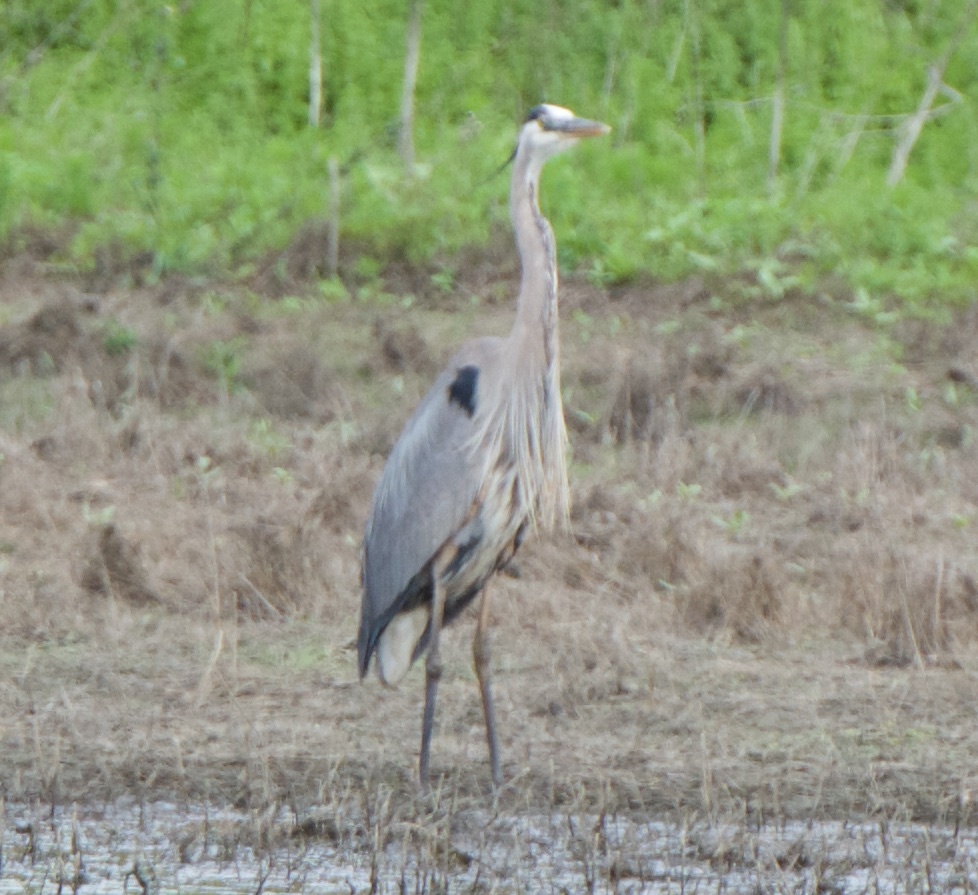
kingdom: Animalia
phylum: Chordata
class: Aves
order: Pelecaniformes
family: Ardeidae
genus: Ardea
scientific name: Ardea herodias
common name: Great blue heron
